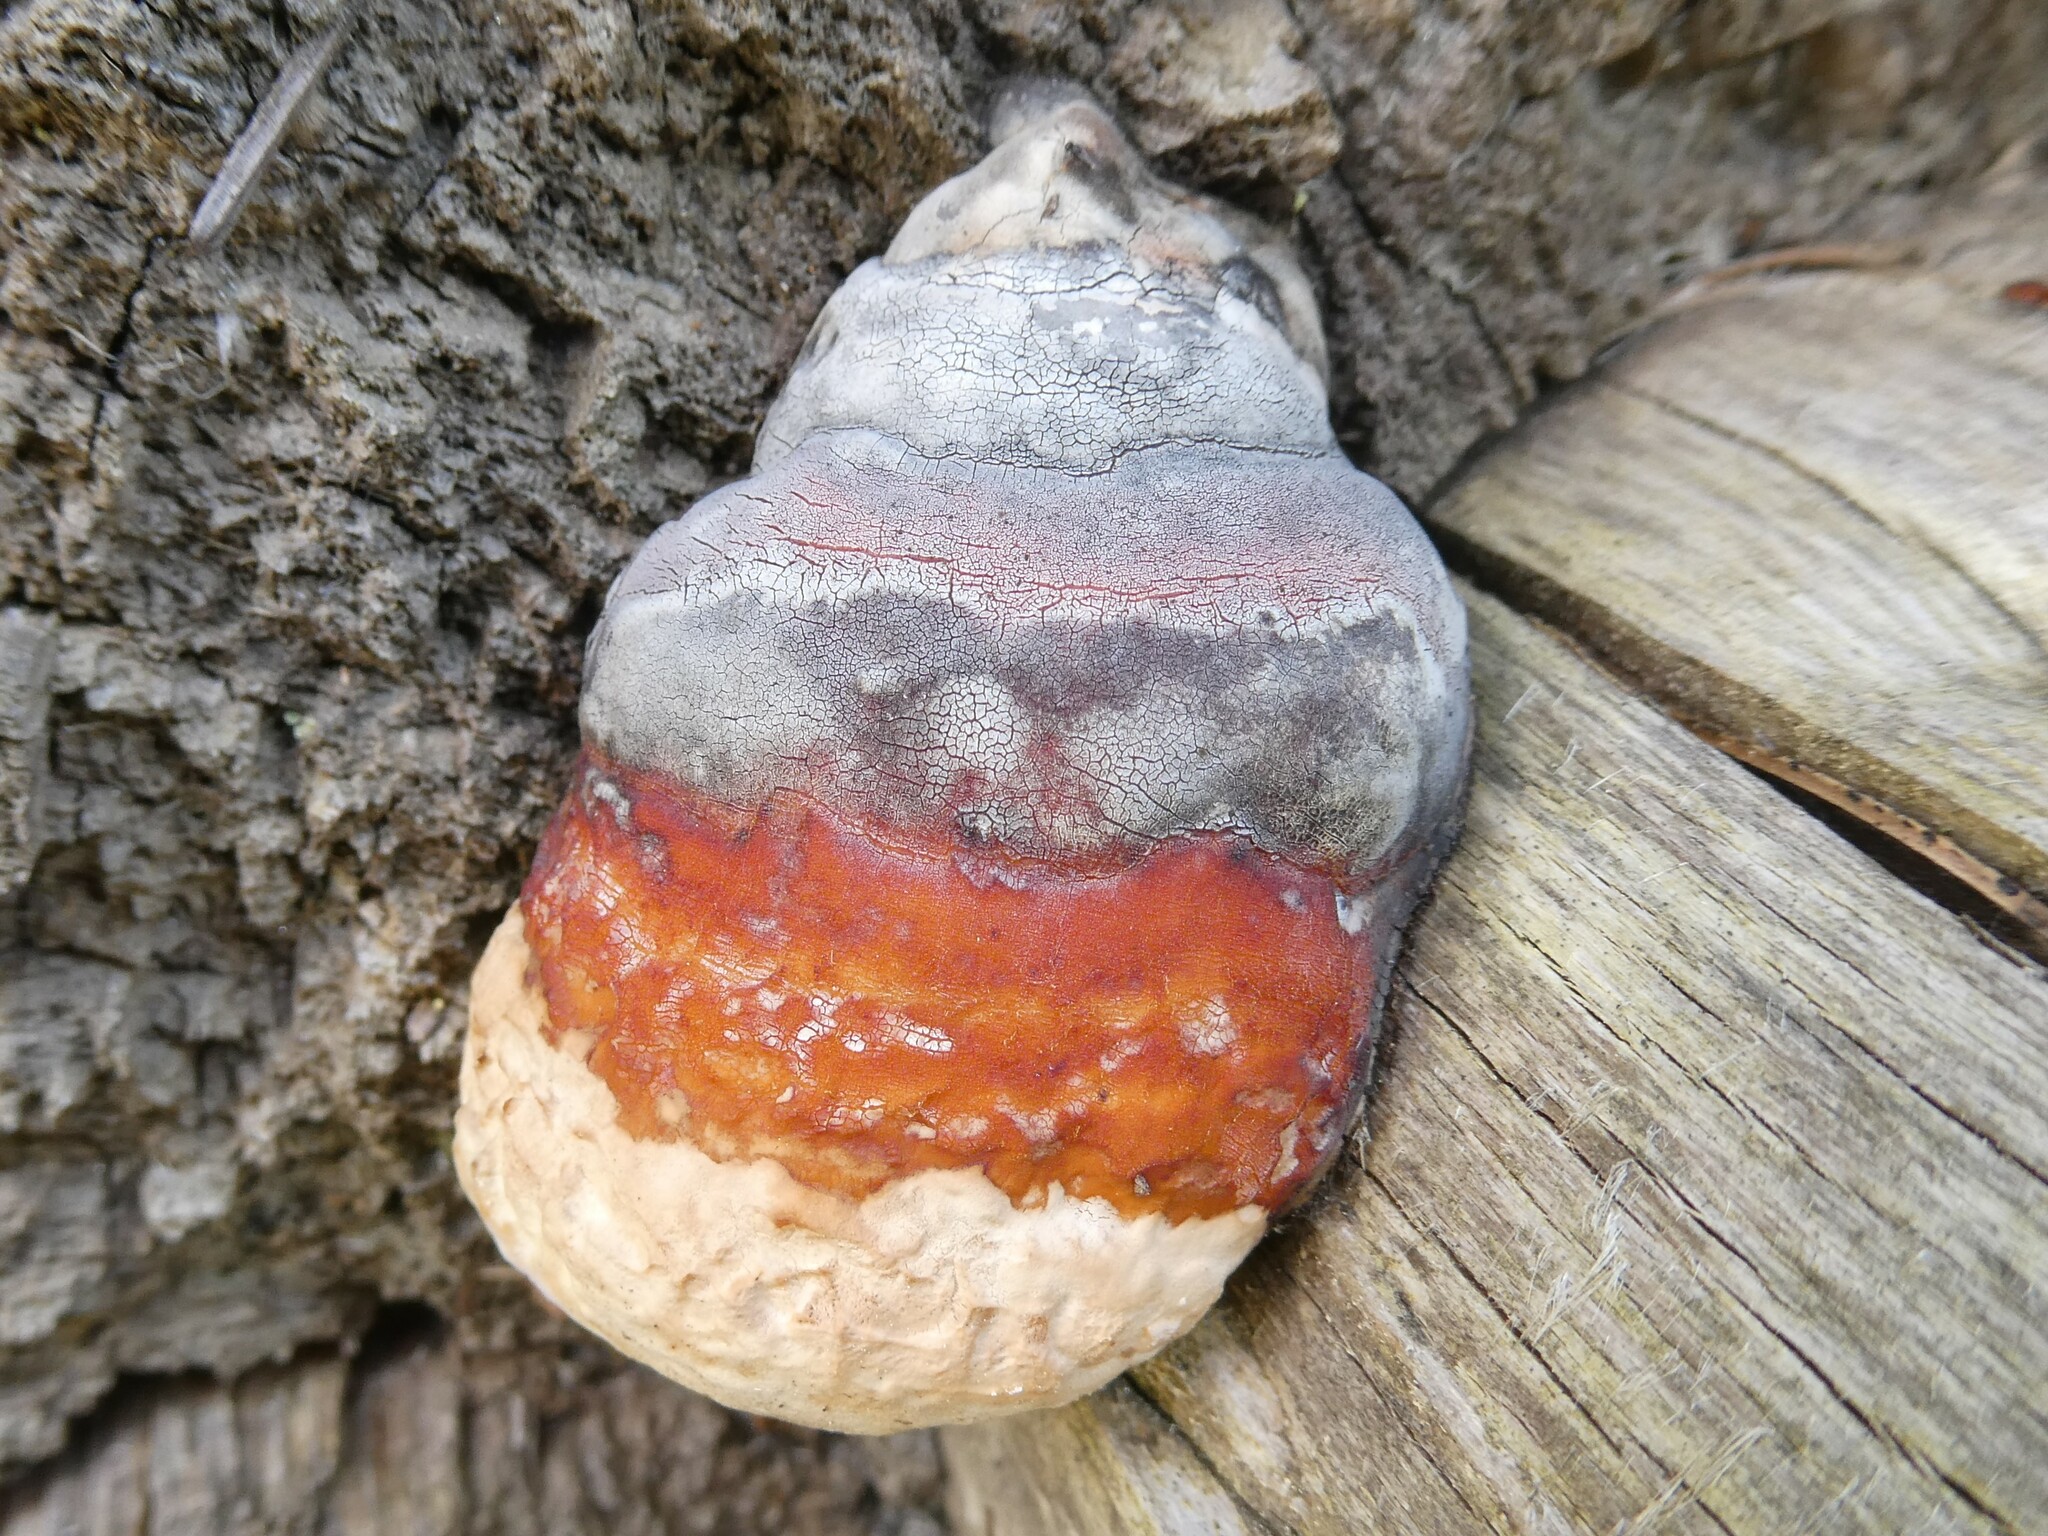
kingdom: Fungi
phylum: Basidiomycota
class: Agaricomycetes
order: Polyporales
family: Fomitopsidaceae
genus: Fomitopsis
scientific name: Fomitopsis mounceae
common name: Northern red belt
